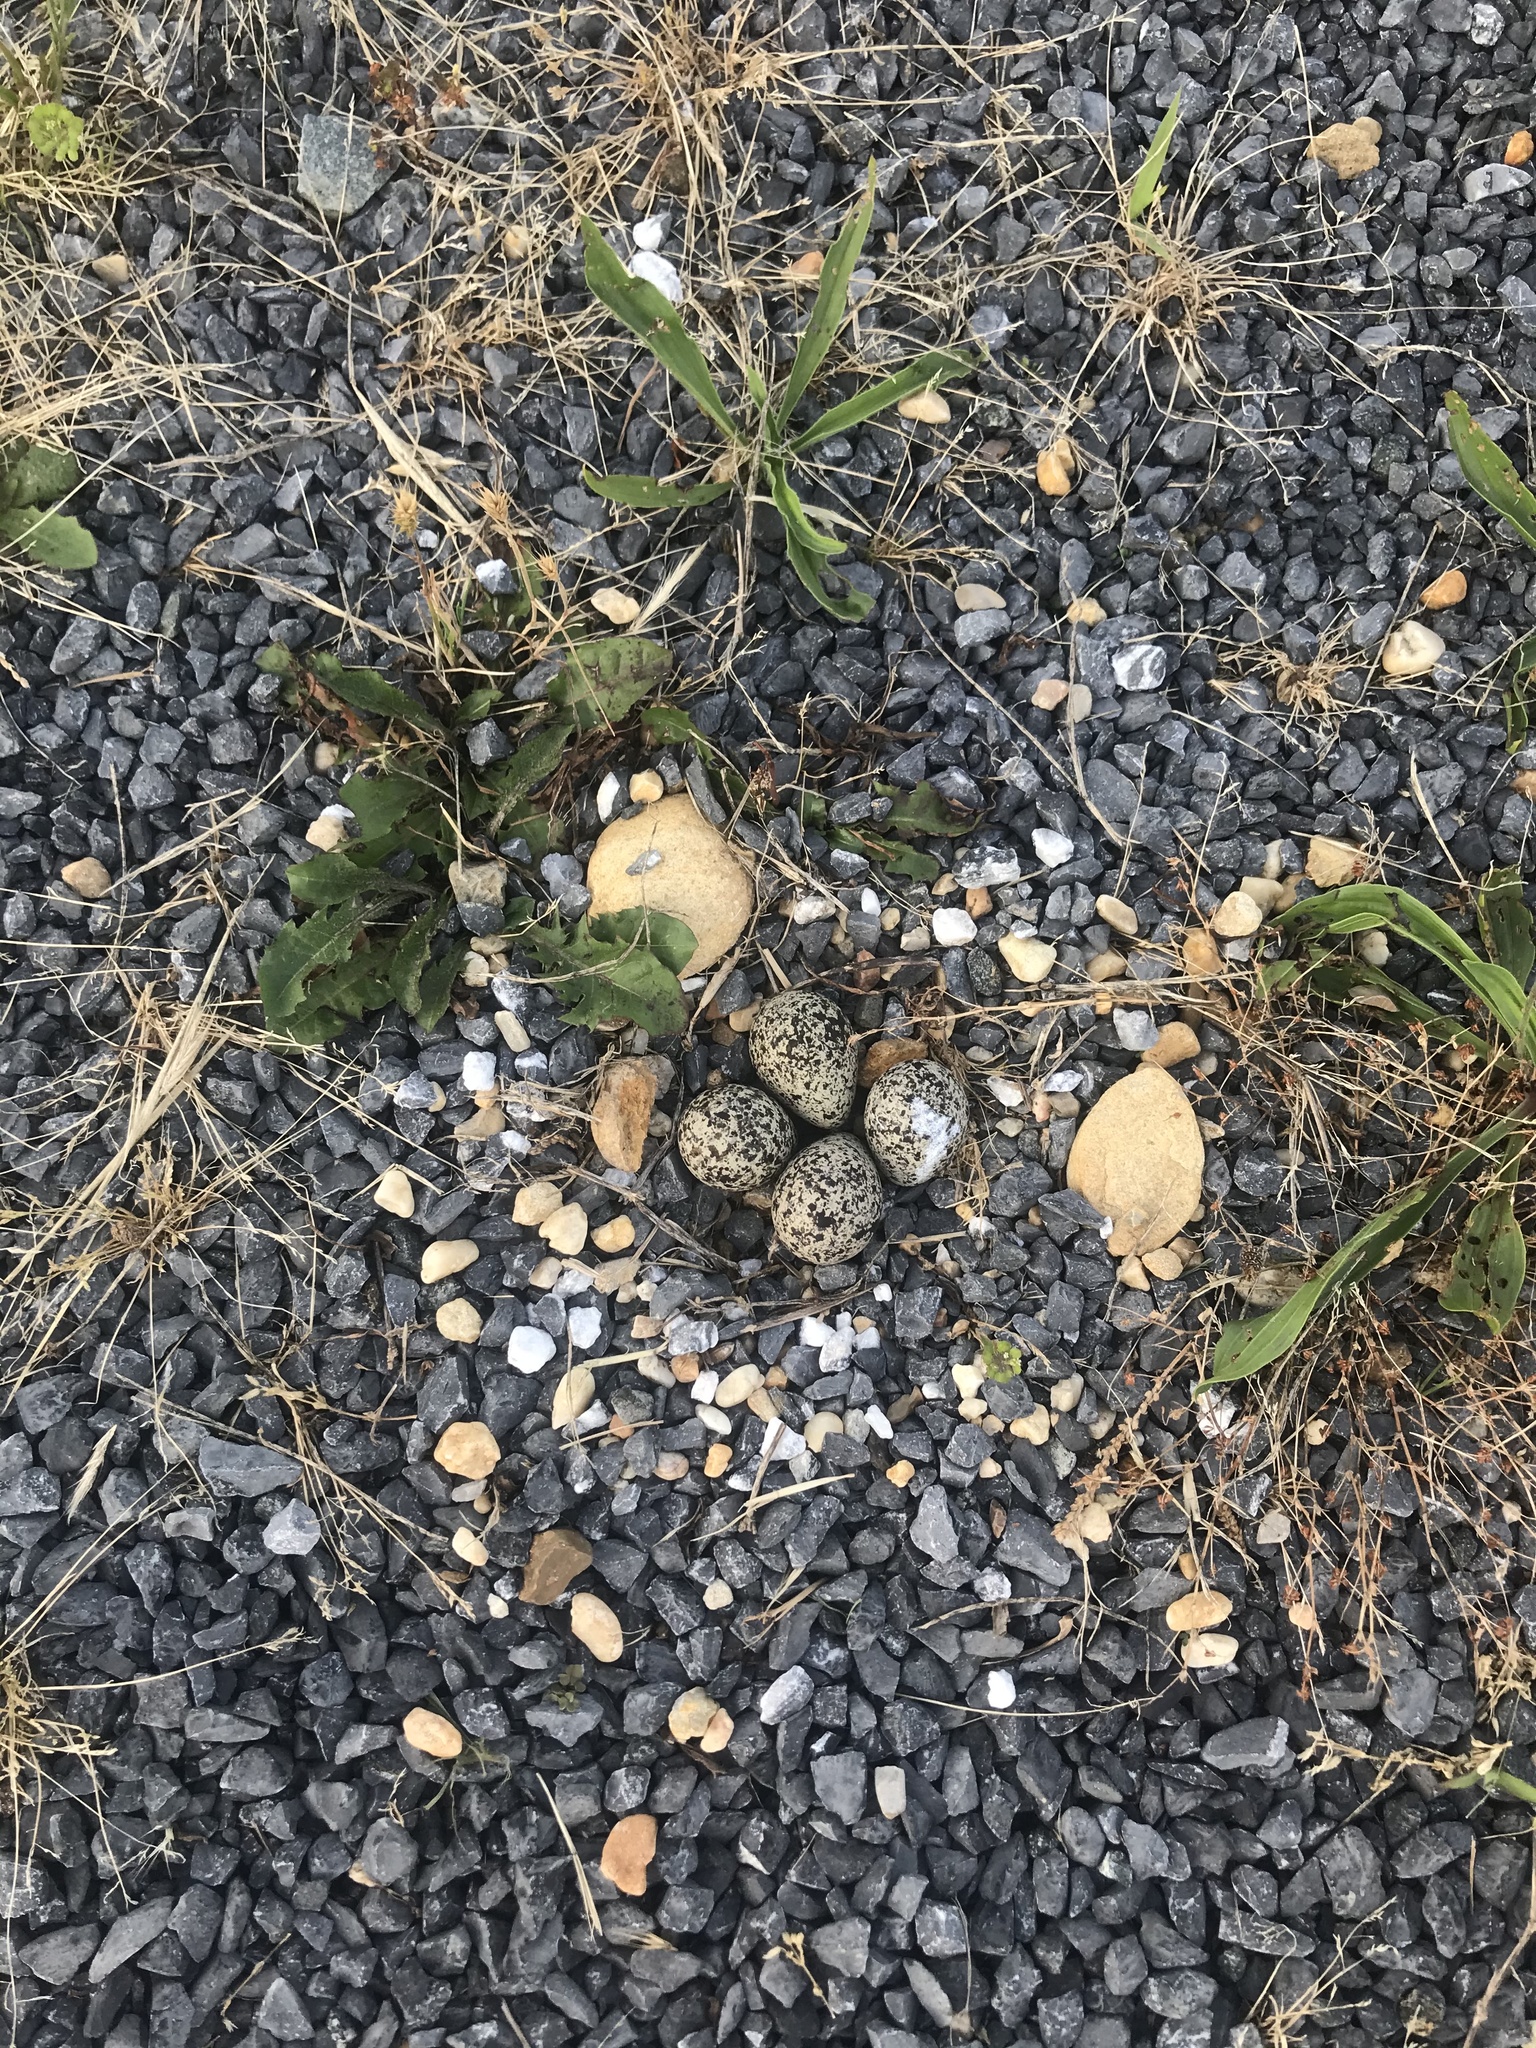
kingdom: Animalia
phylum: Chordata
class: Aves
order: Charadriiformes
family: Charadriidae
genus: Charadrius
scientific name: Charadrius vociferus
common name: Killdeer
